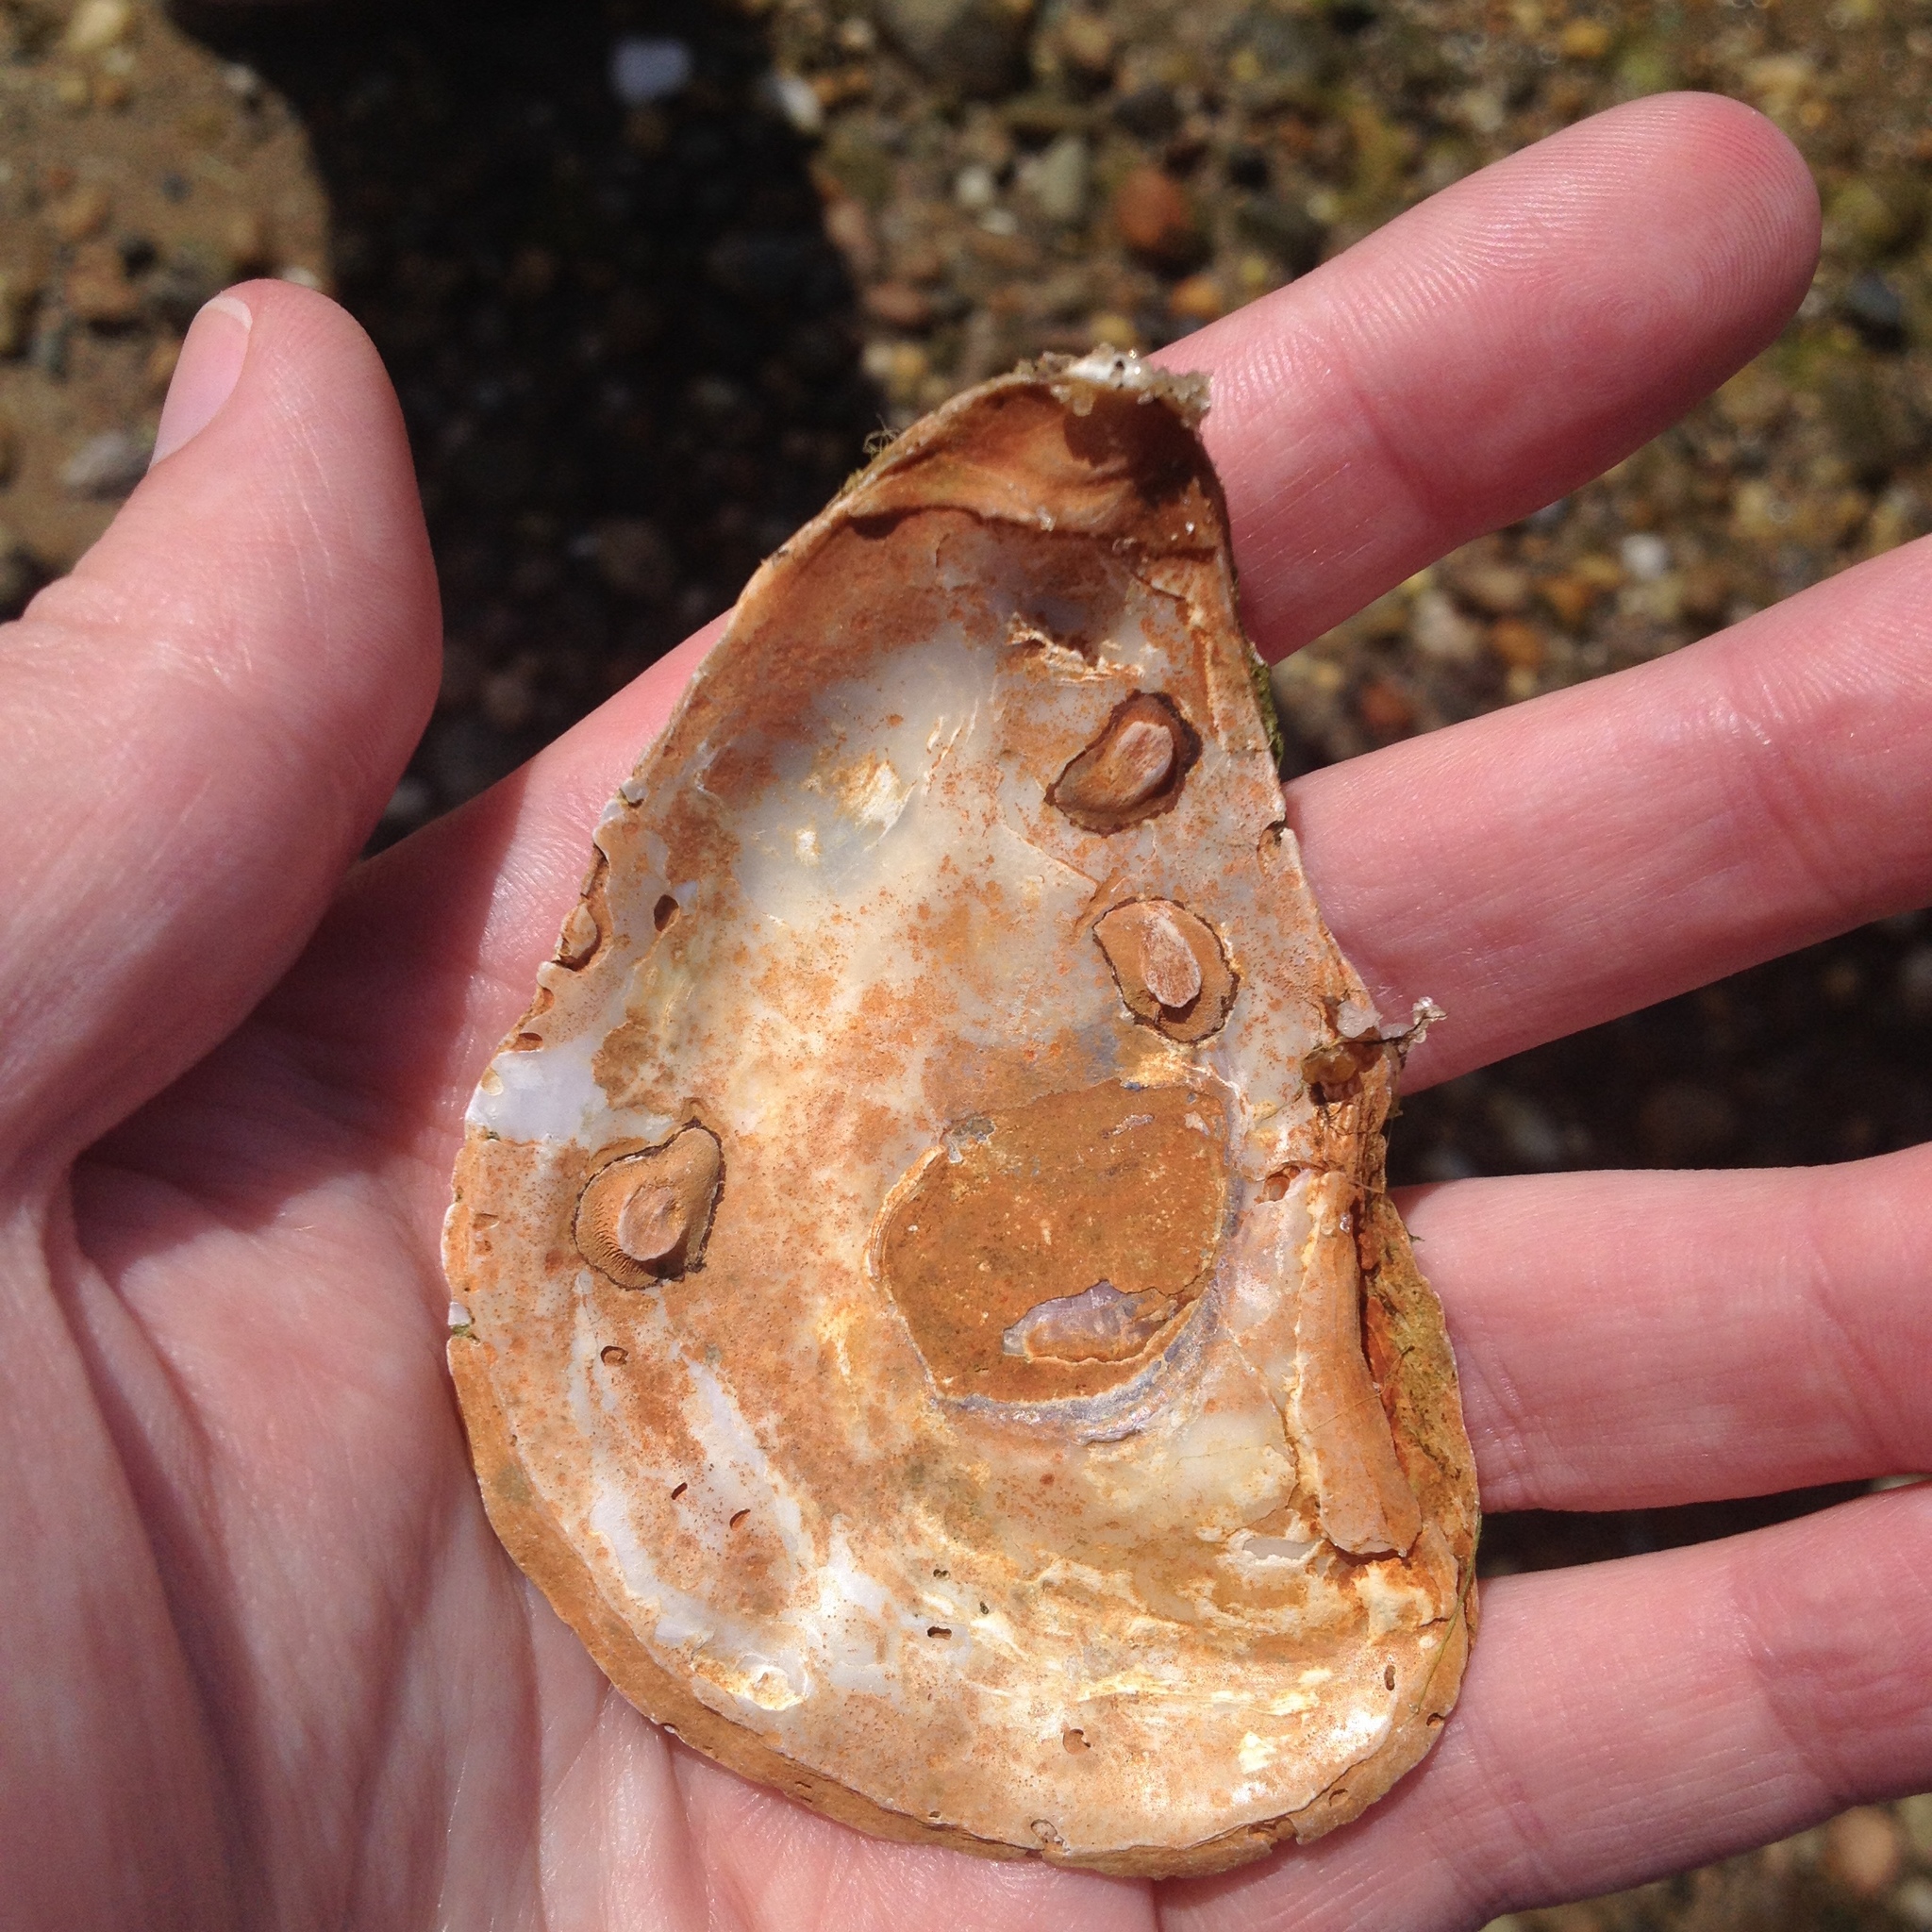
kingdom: Animalia
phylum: Mollusca
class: Bivalvia
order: Ostreida
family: Ostreidae
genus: Crassostrea
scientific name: Crassostrea virginica
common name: American oyster
